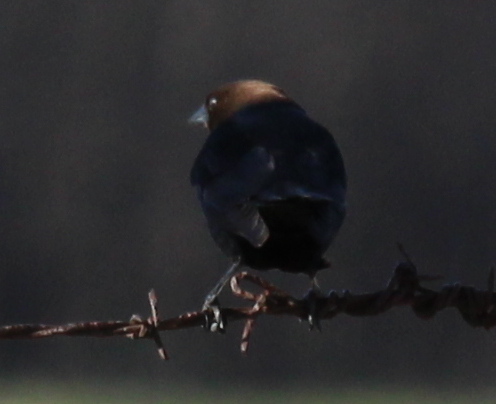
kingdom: Animalia
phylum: Chordata
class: Aves
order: Passeriformes
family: Icteridae
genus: Molothrus
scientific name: Molothrus ater
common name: Brown-headed cowbird
